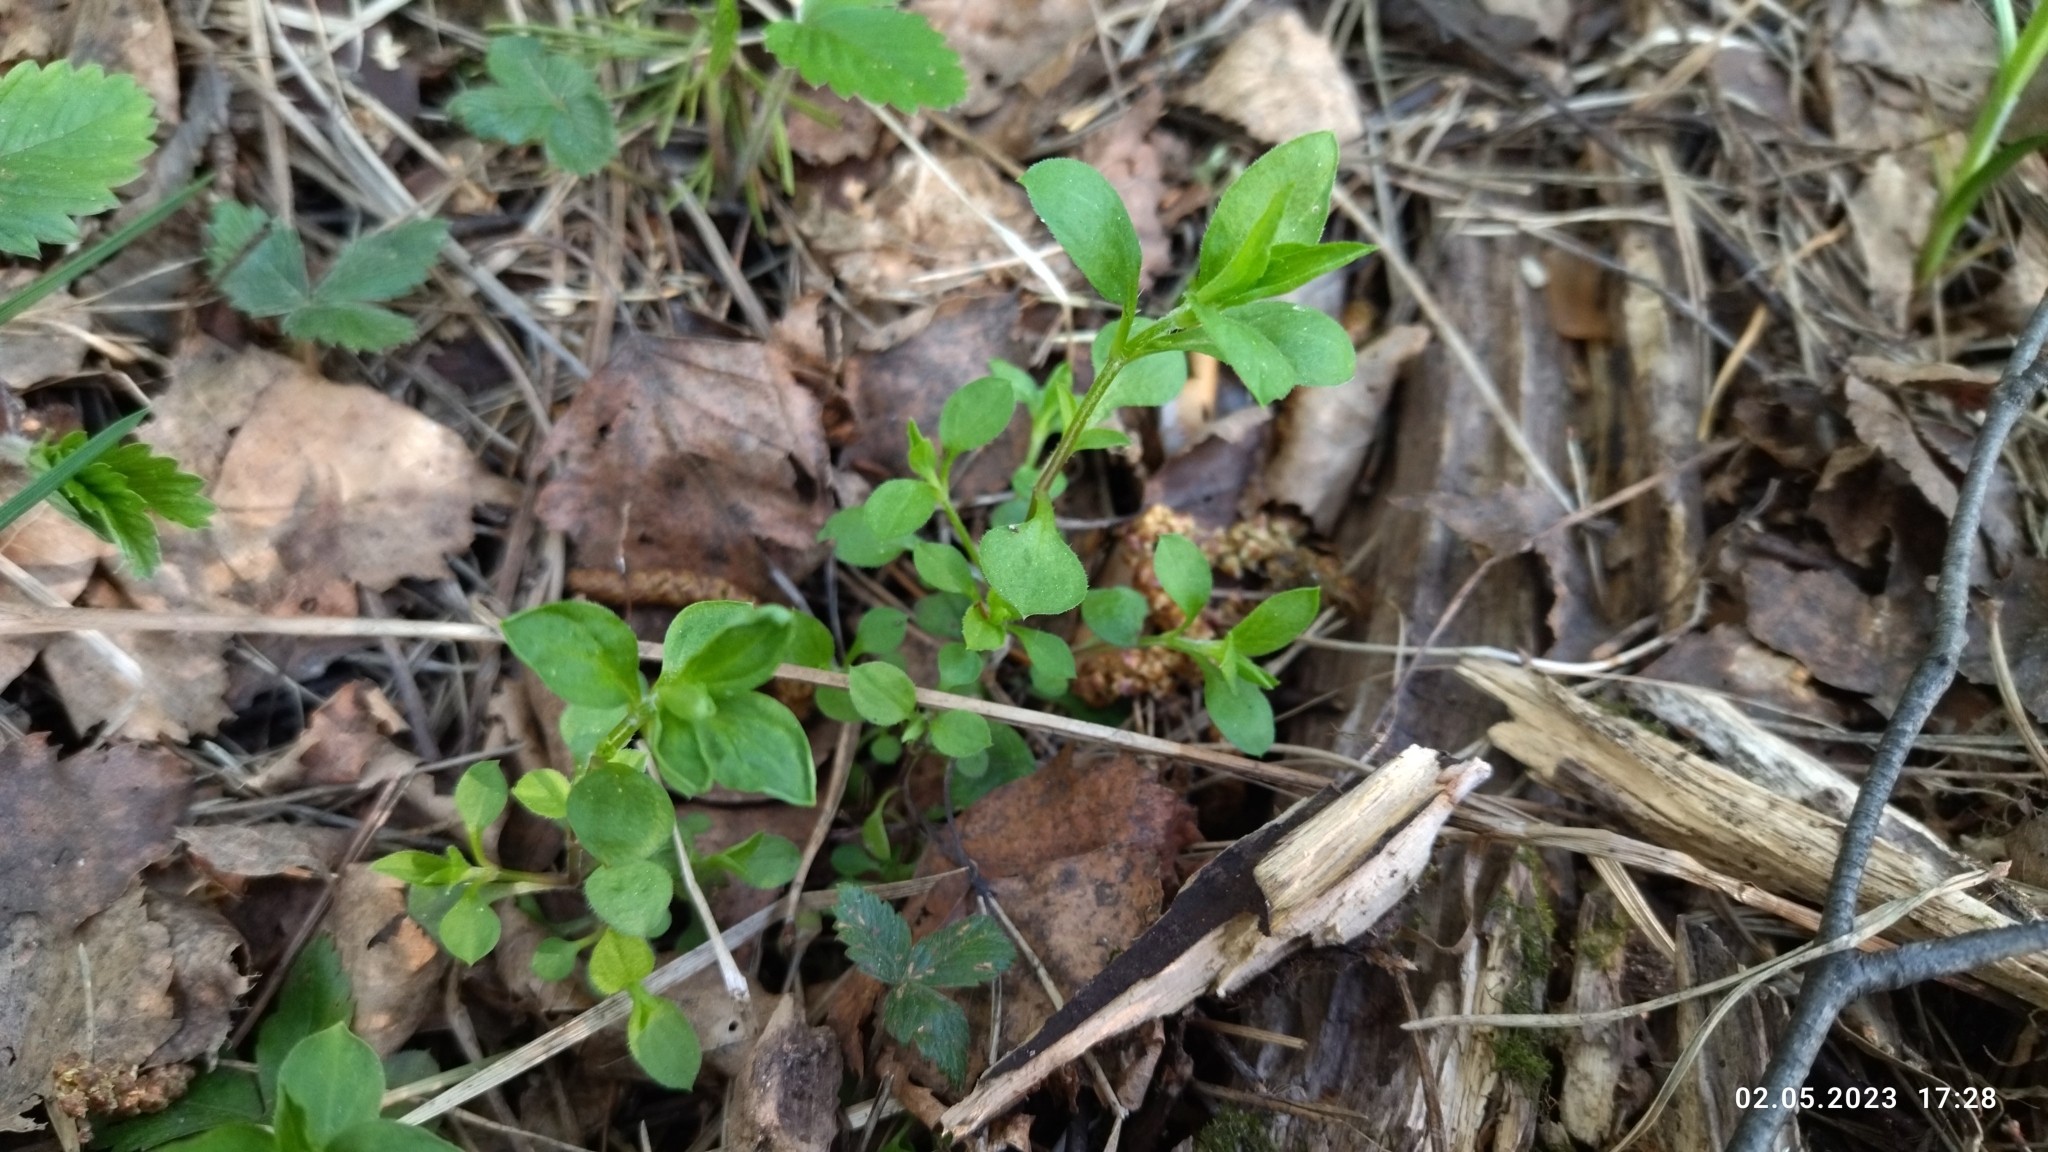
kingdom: Plantae
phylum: Tracheophyta
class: Magnoliopsida
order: Caryophyllales
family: Caryophyllaceae
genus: Moehringia
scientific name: Moehringia trinervia
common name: Three-nerved sandwort
